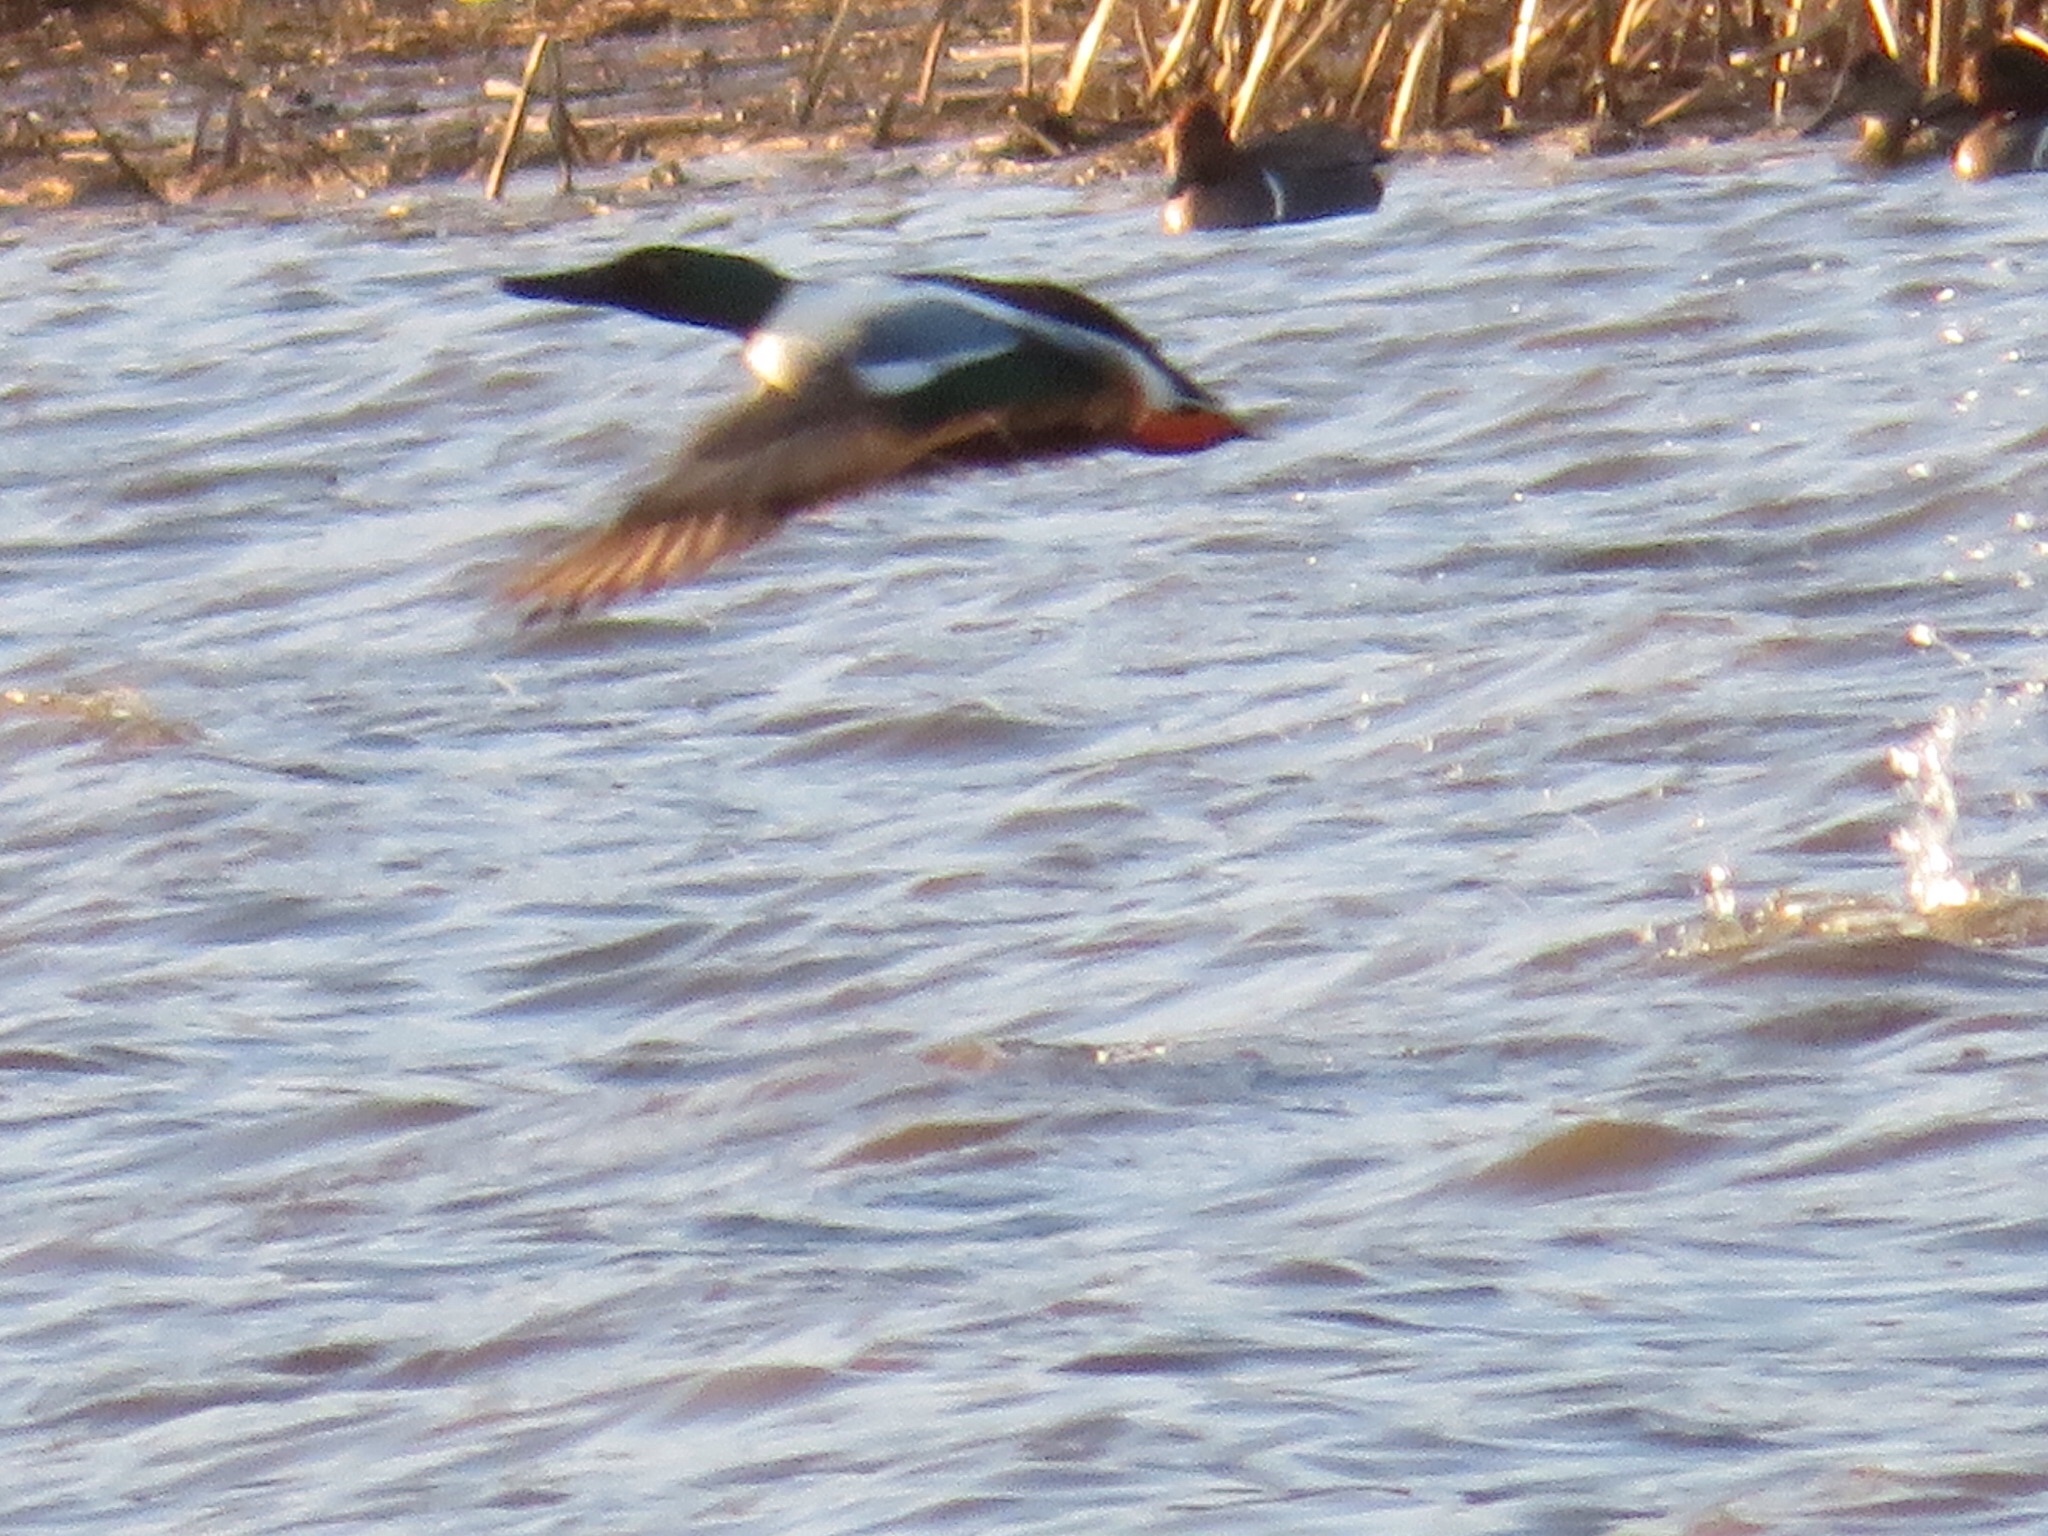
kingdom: Animalia
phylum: Chordata
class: Aves
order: Anseriformes
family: Anatidae
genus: Spatula
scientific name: Spatula clypeata
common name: Northern shoveler
